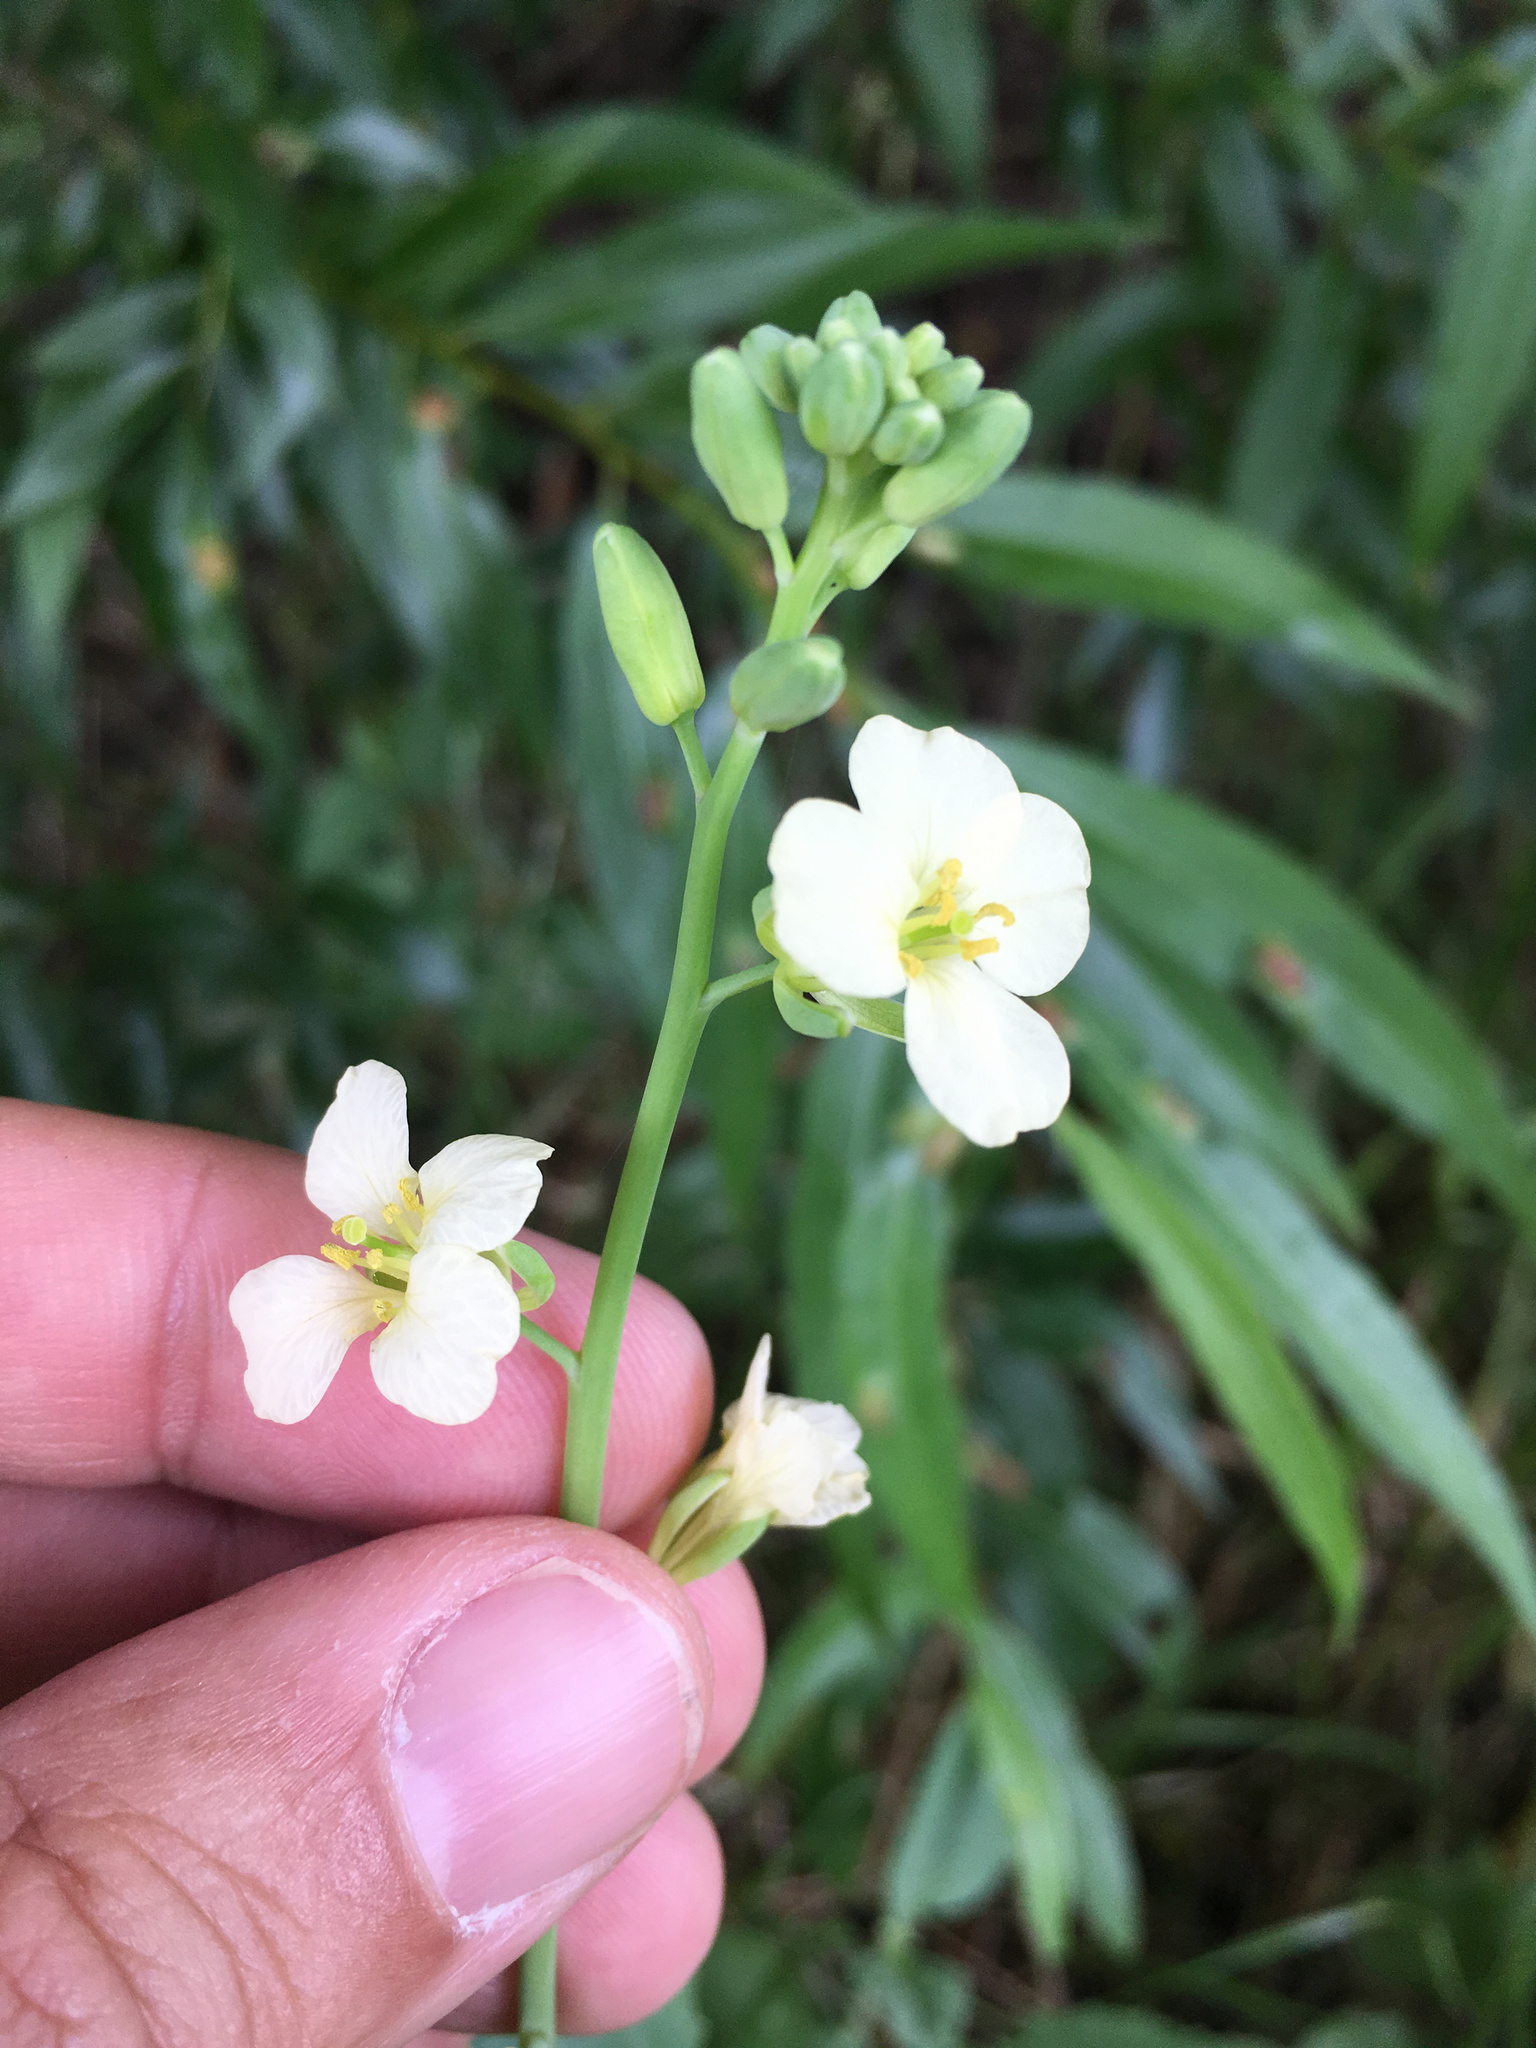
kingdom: Plantae
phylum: Tracheophyta
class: Magnoliopsida
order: Brassicales
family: Brassicaceae
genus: Brassica
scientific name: Brassica oleracea
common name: Cabbage
